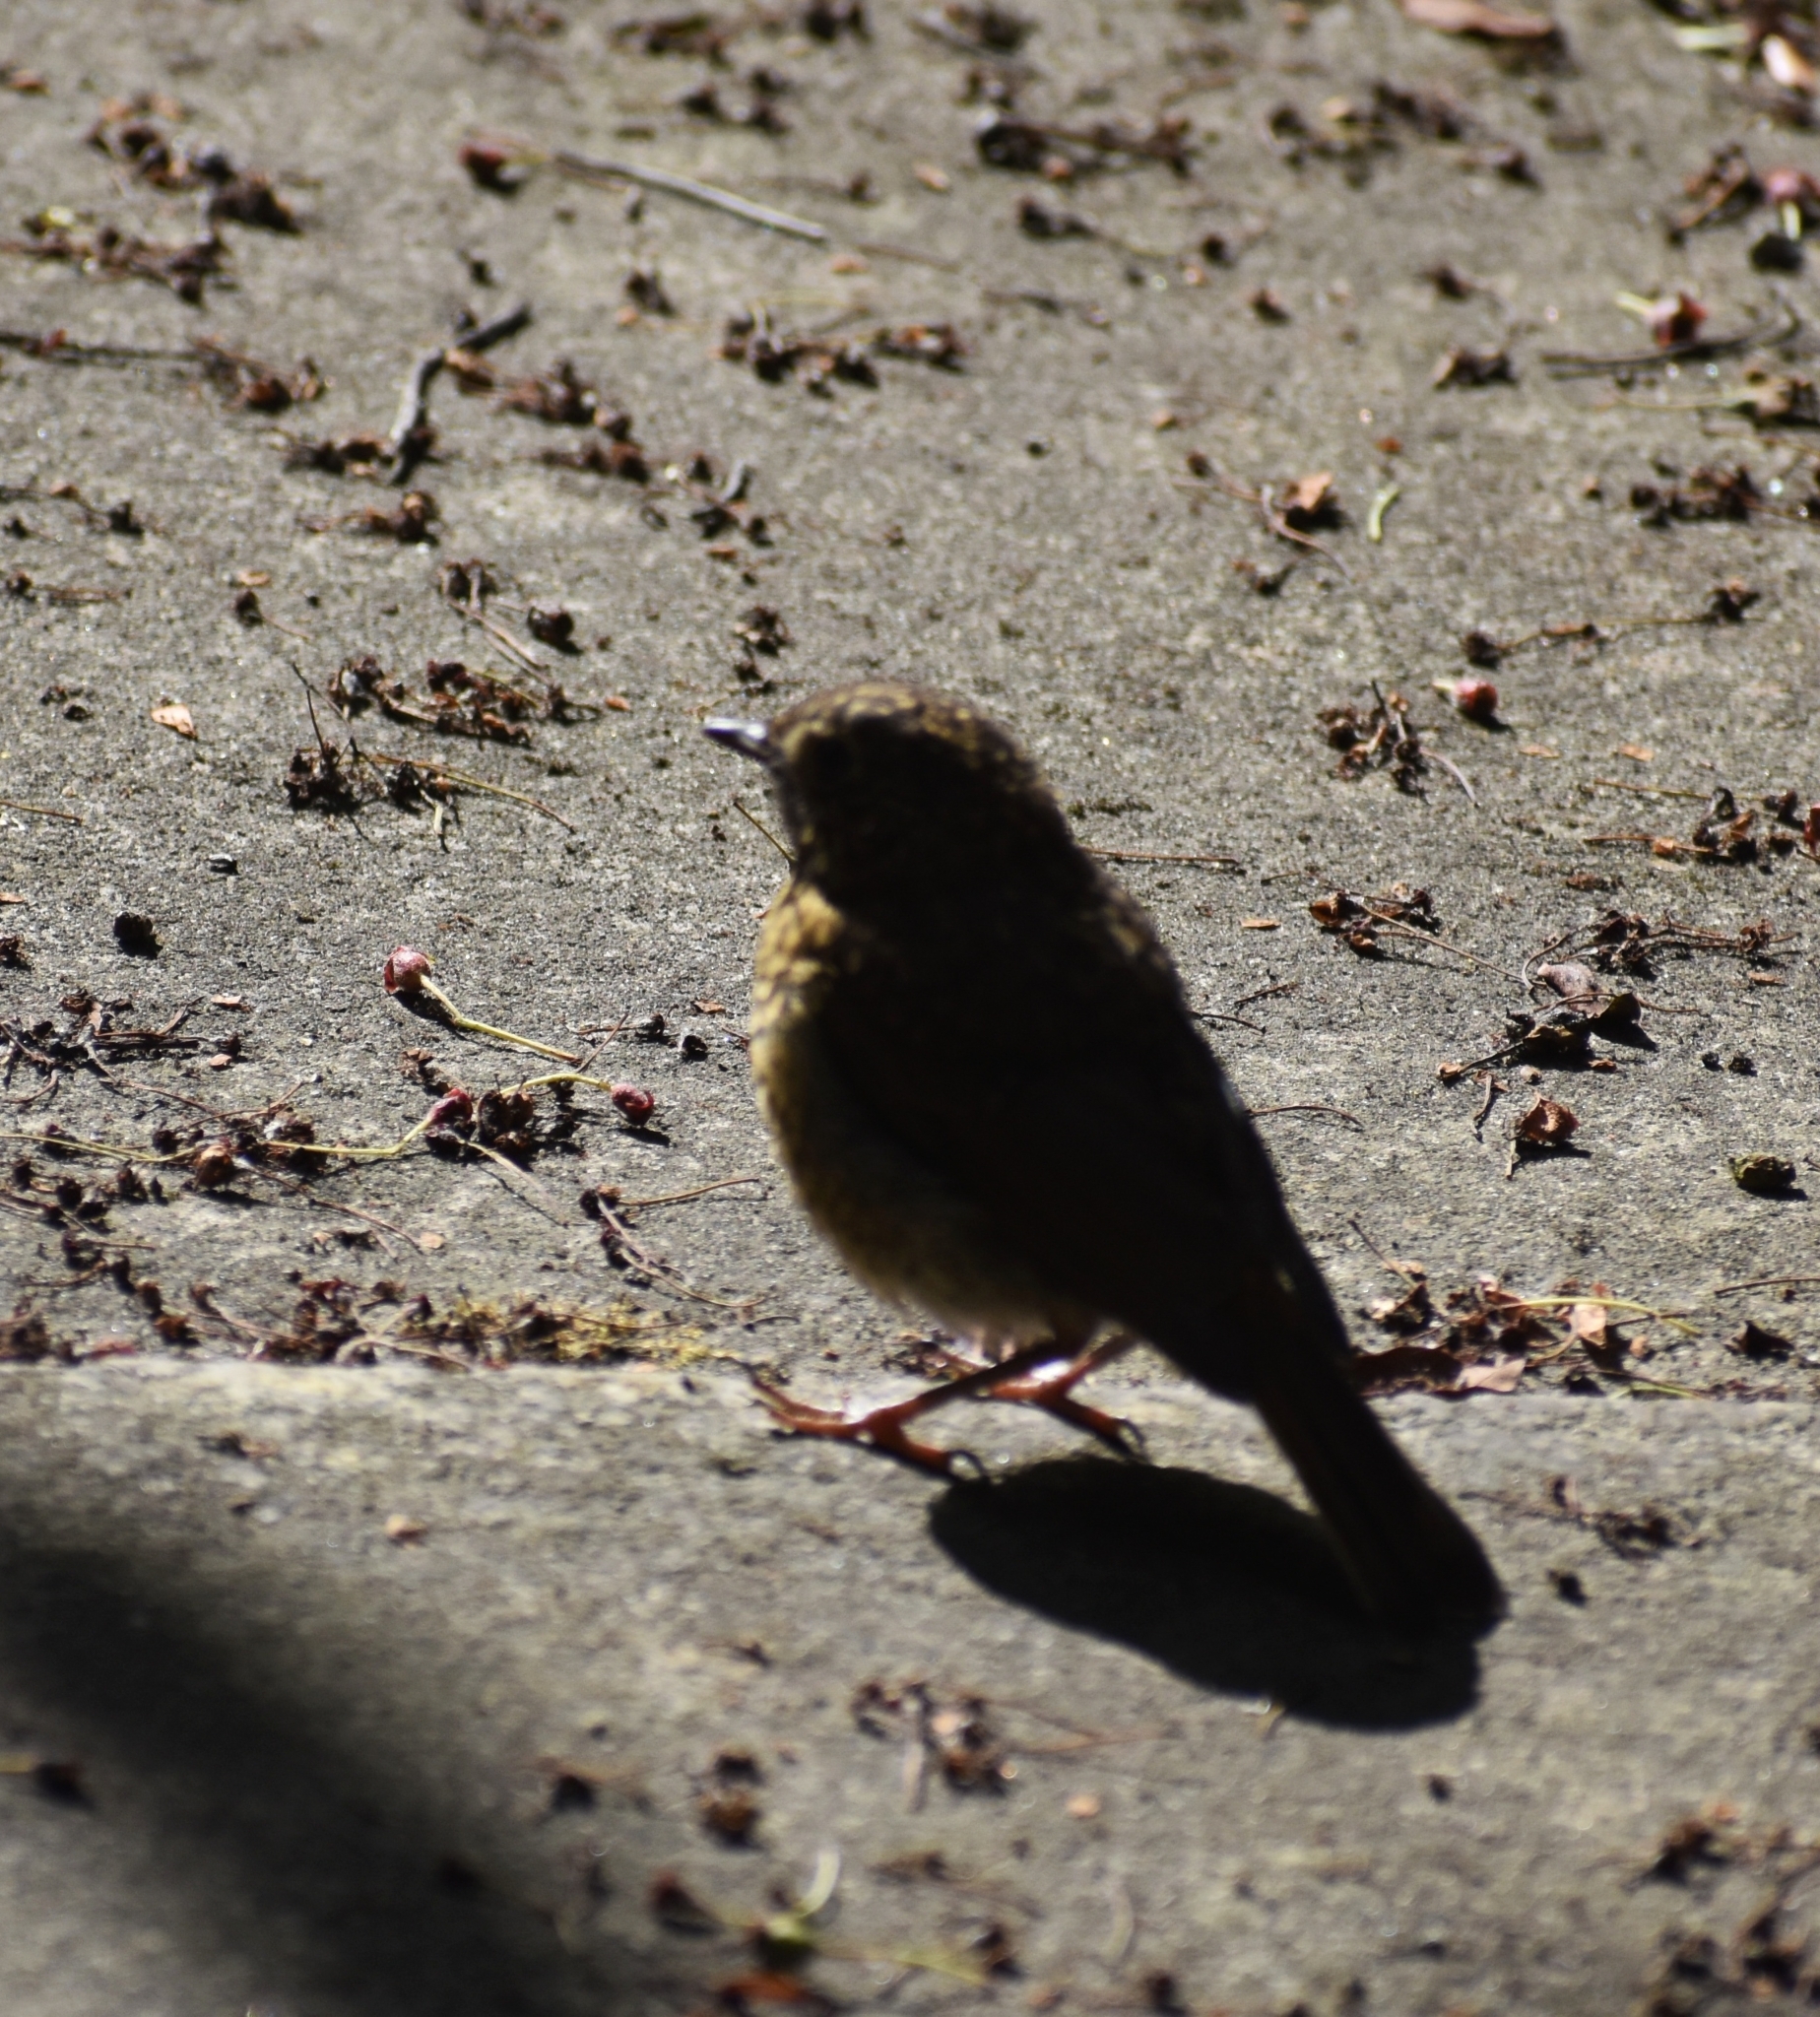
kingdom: Animalia
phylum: Chordata
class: Aves
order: Passeriformes
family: Muscicapidae
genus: Erithacus
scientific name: Erithacus rubecula
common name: European robin
